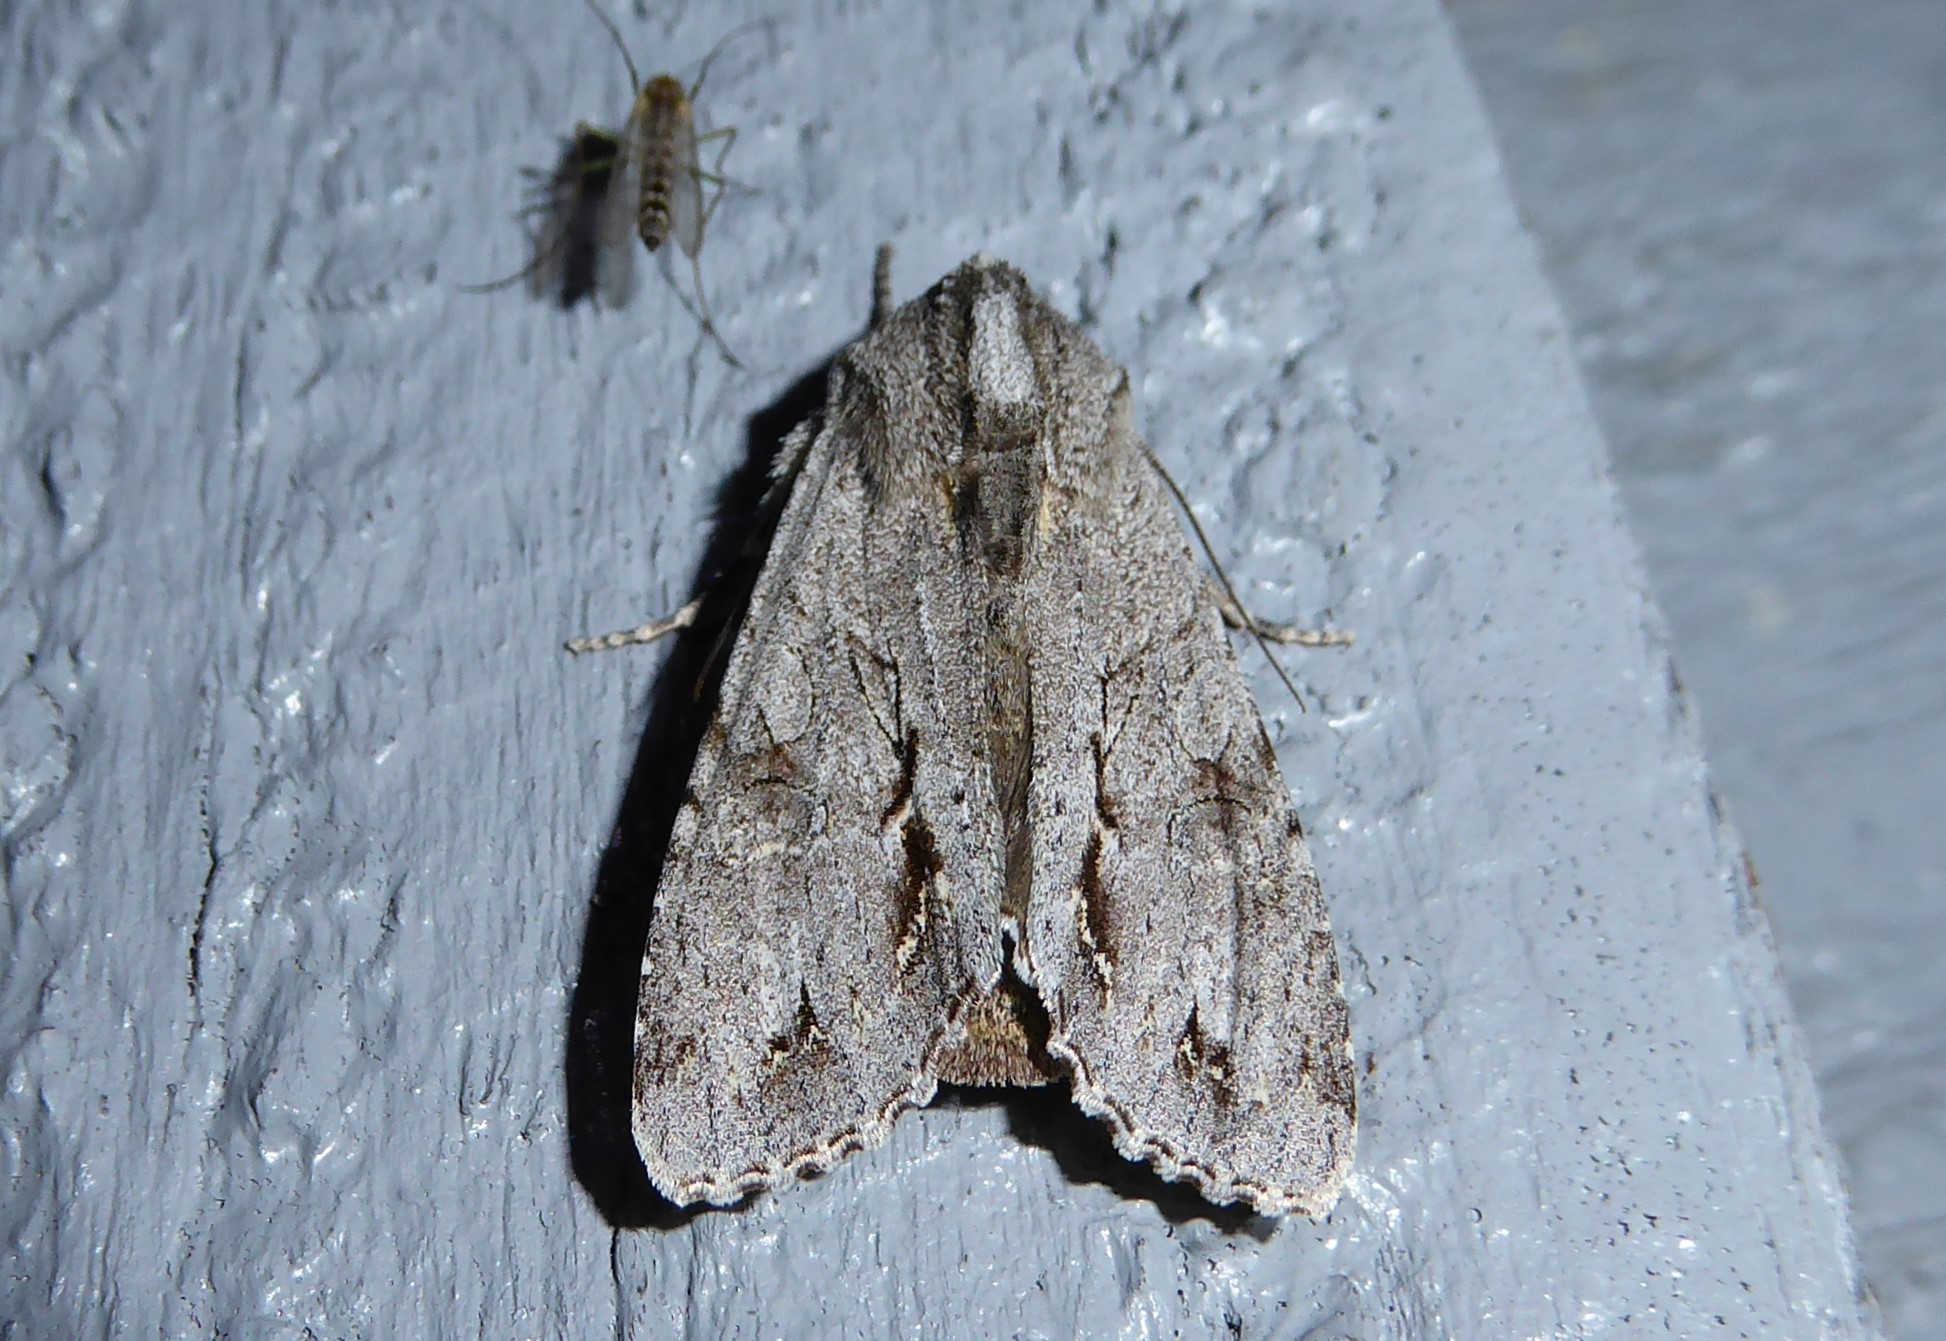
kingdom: Animalia
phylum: Arthropoda
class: Insecta
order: Lepidoptera
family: Noctuidae
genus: Ichneutica
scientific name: Ichneutica
